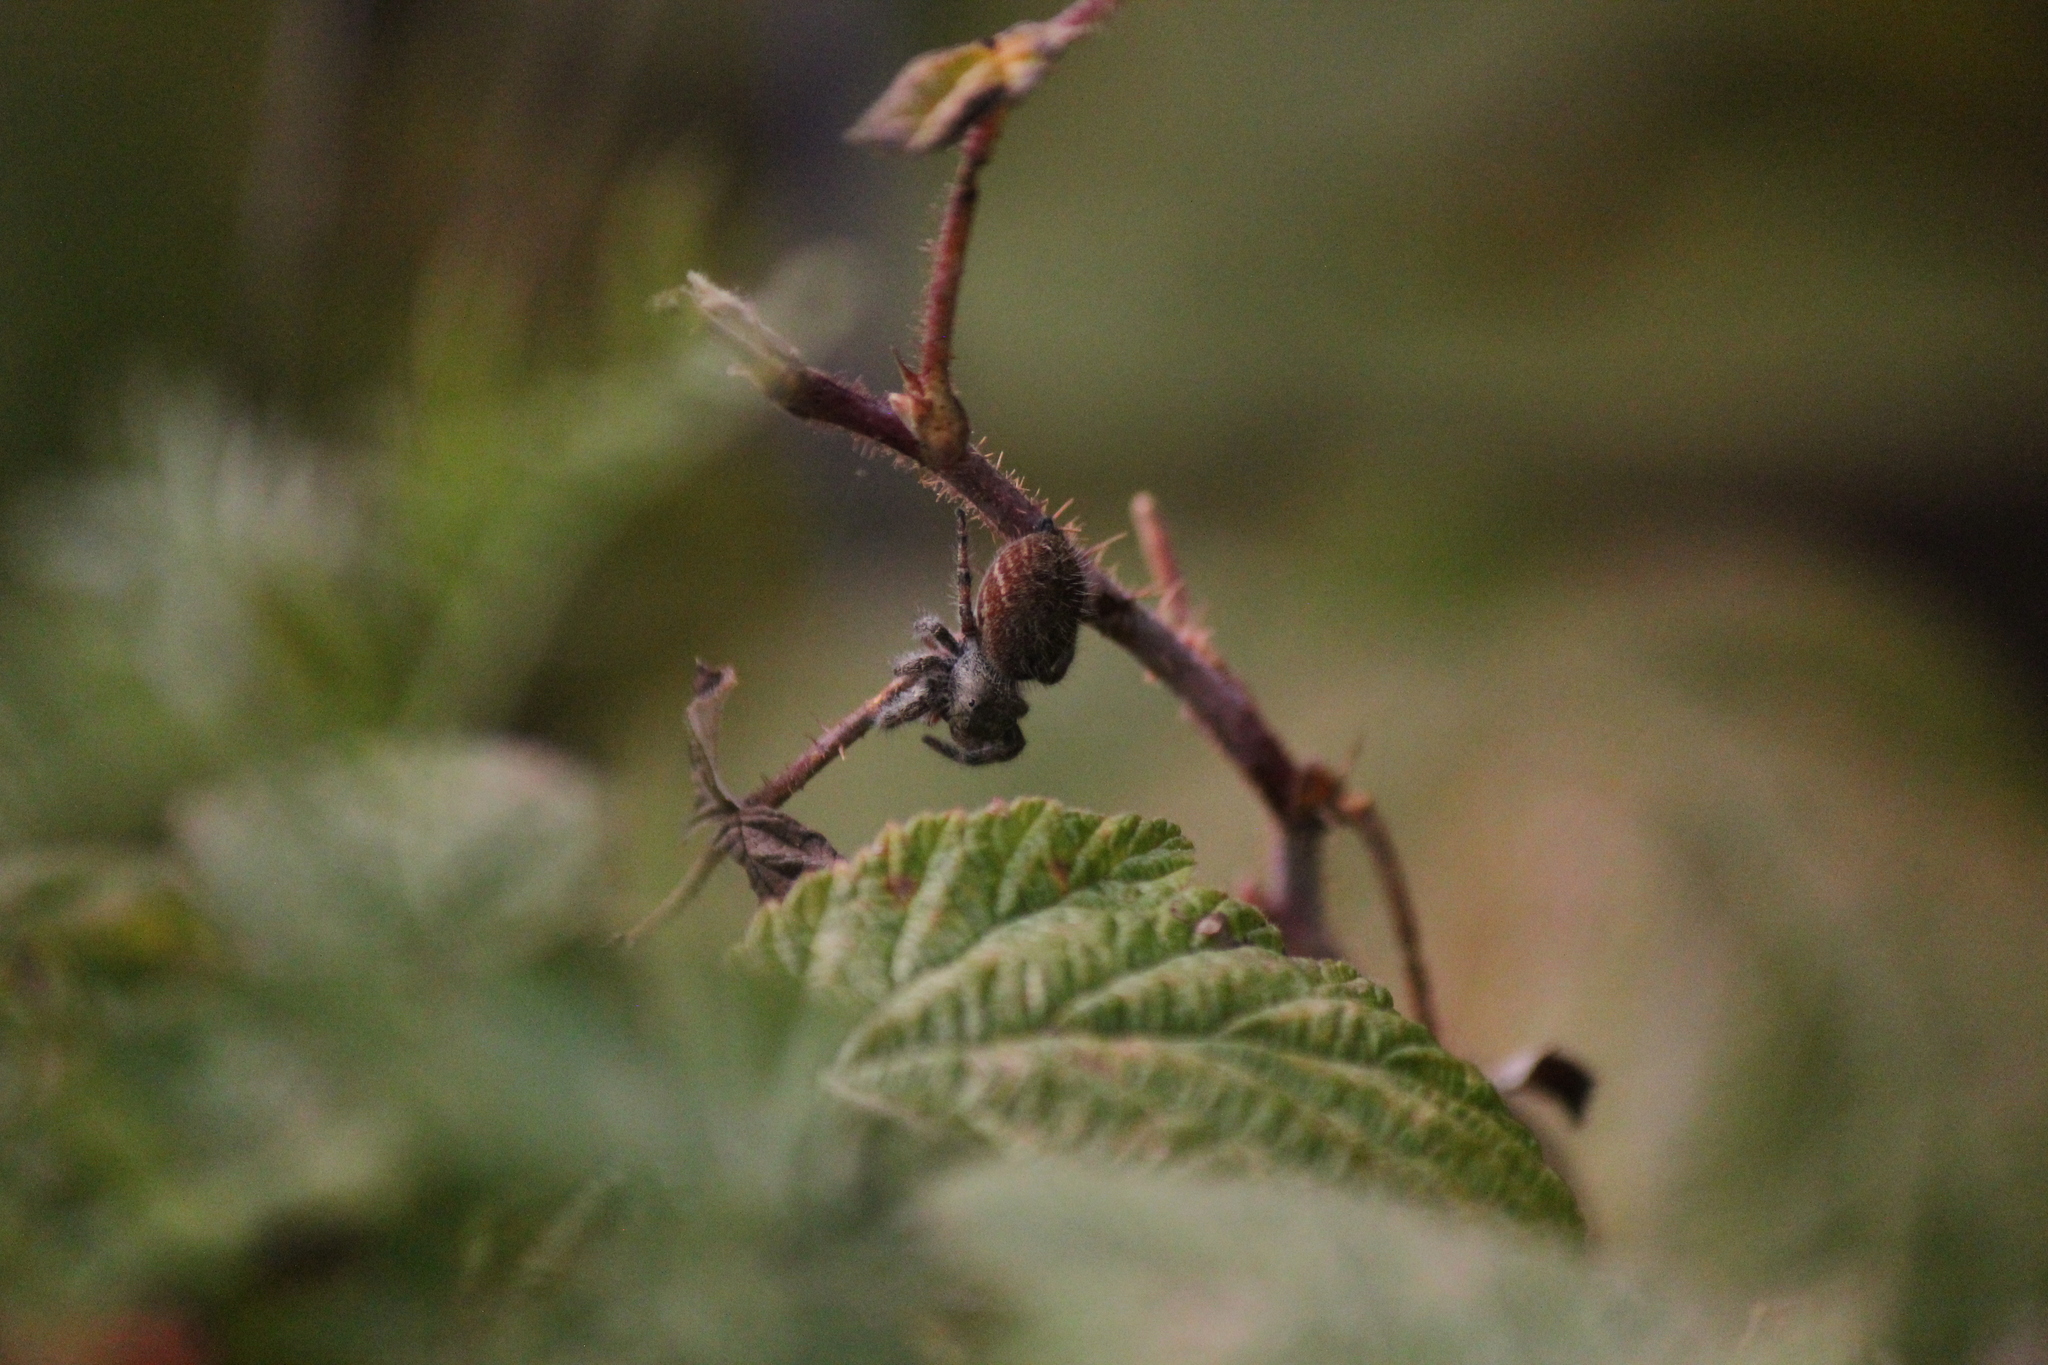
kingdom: Animalia
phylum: Arthropoda
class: Arachnida
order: Araneae
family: Salticidae
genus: Phidippus
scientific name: Phidippus princeps
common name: Grayish jumping spider
